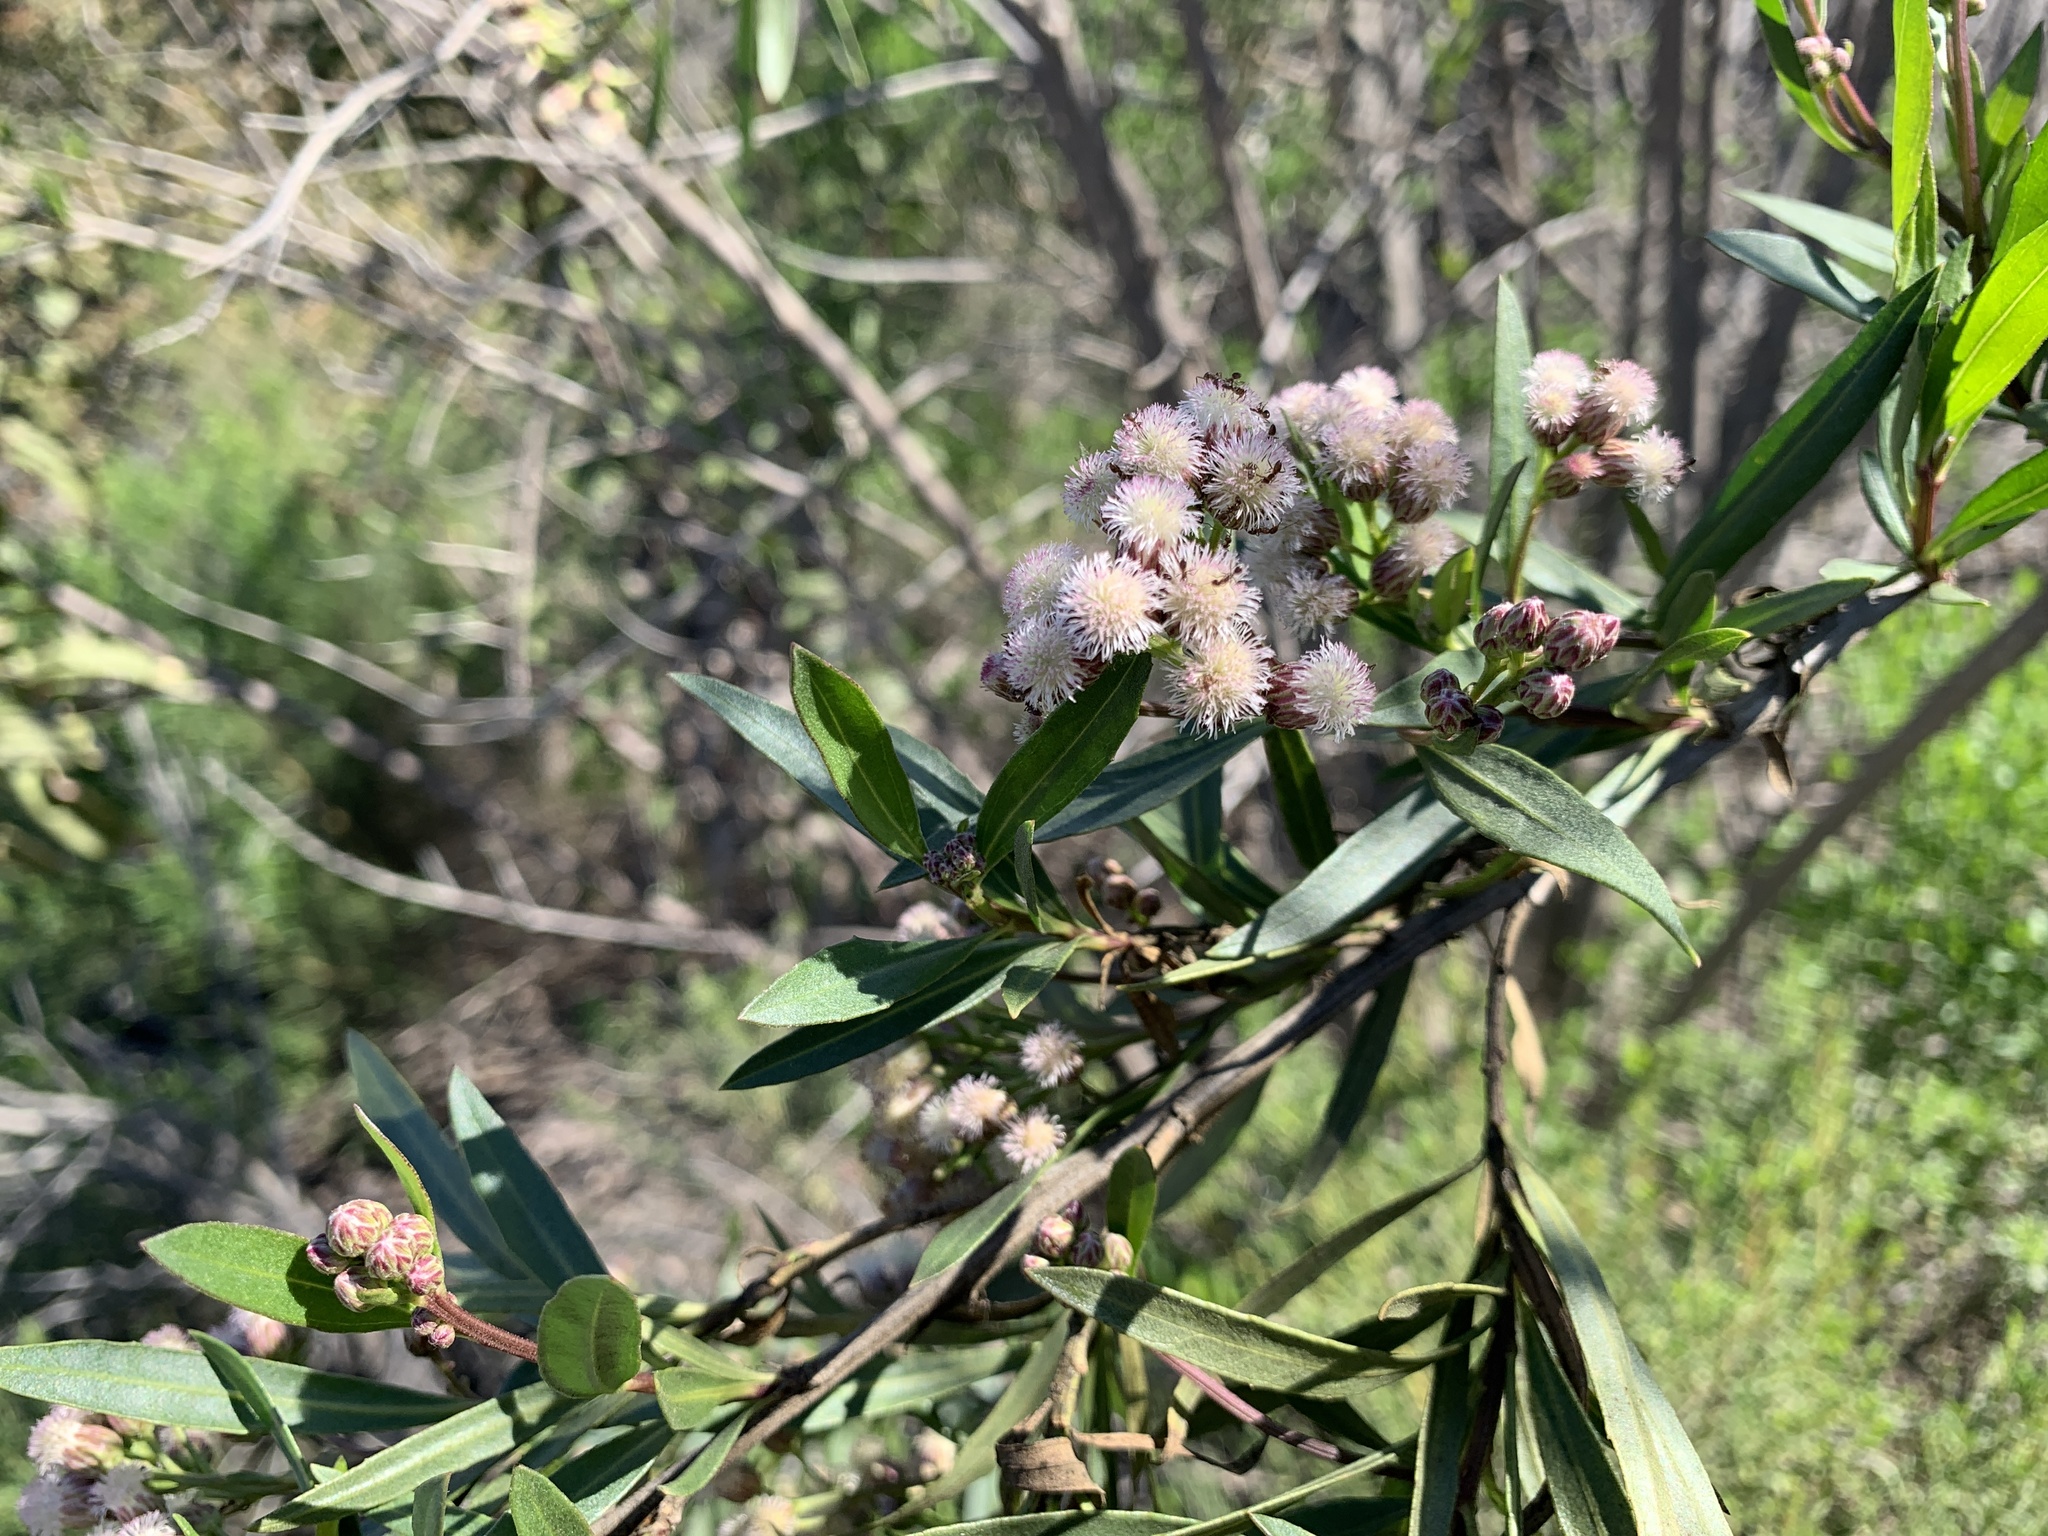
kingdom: Plantae
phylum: Tracheophyta
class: Magnoliopsida
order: Asterales
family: Asteraceae
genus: Baccharis
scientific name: Baccharis salicifolia
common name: Sticky baccharis
